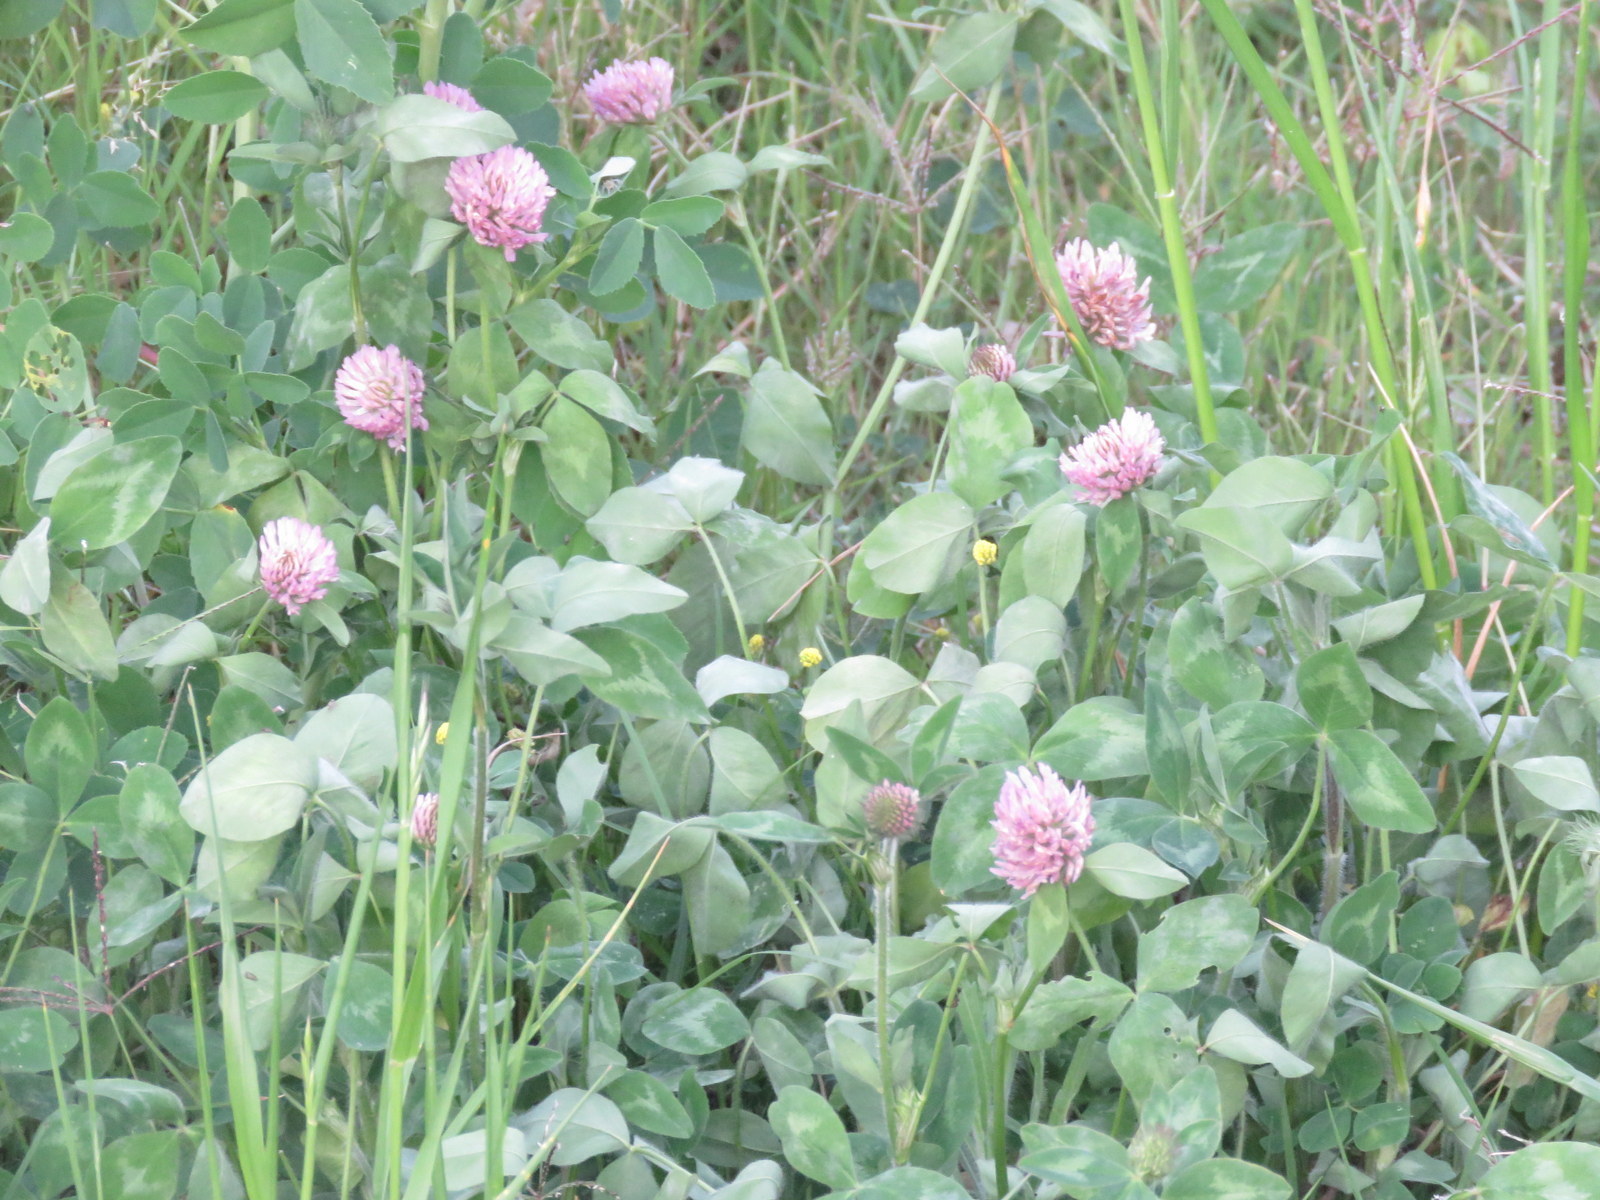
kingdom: Plantae
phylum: Tracheophyta
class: Magnoliopsida
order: Fabales
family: Fabaceae
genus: Trifolium
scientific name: Trifolium pratense
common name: Red clover
